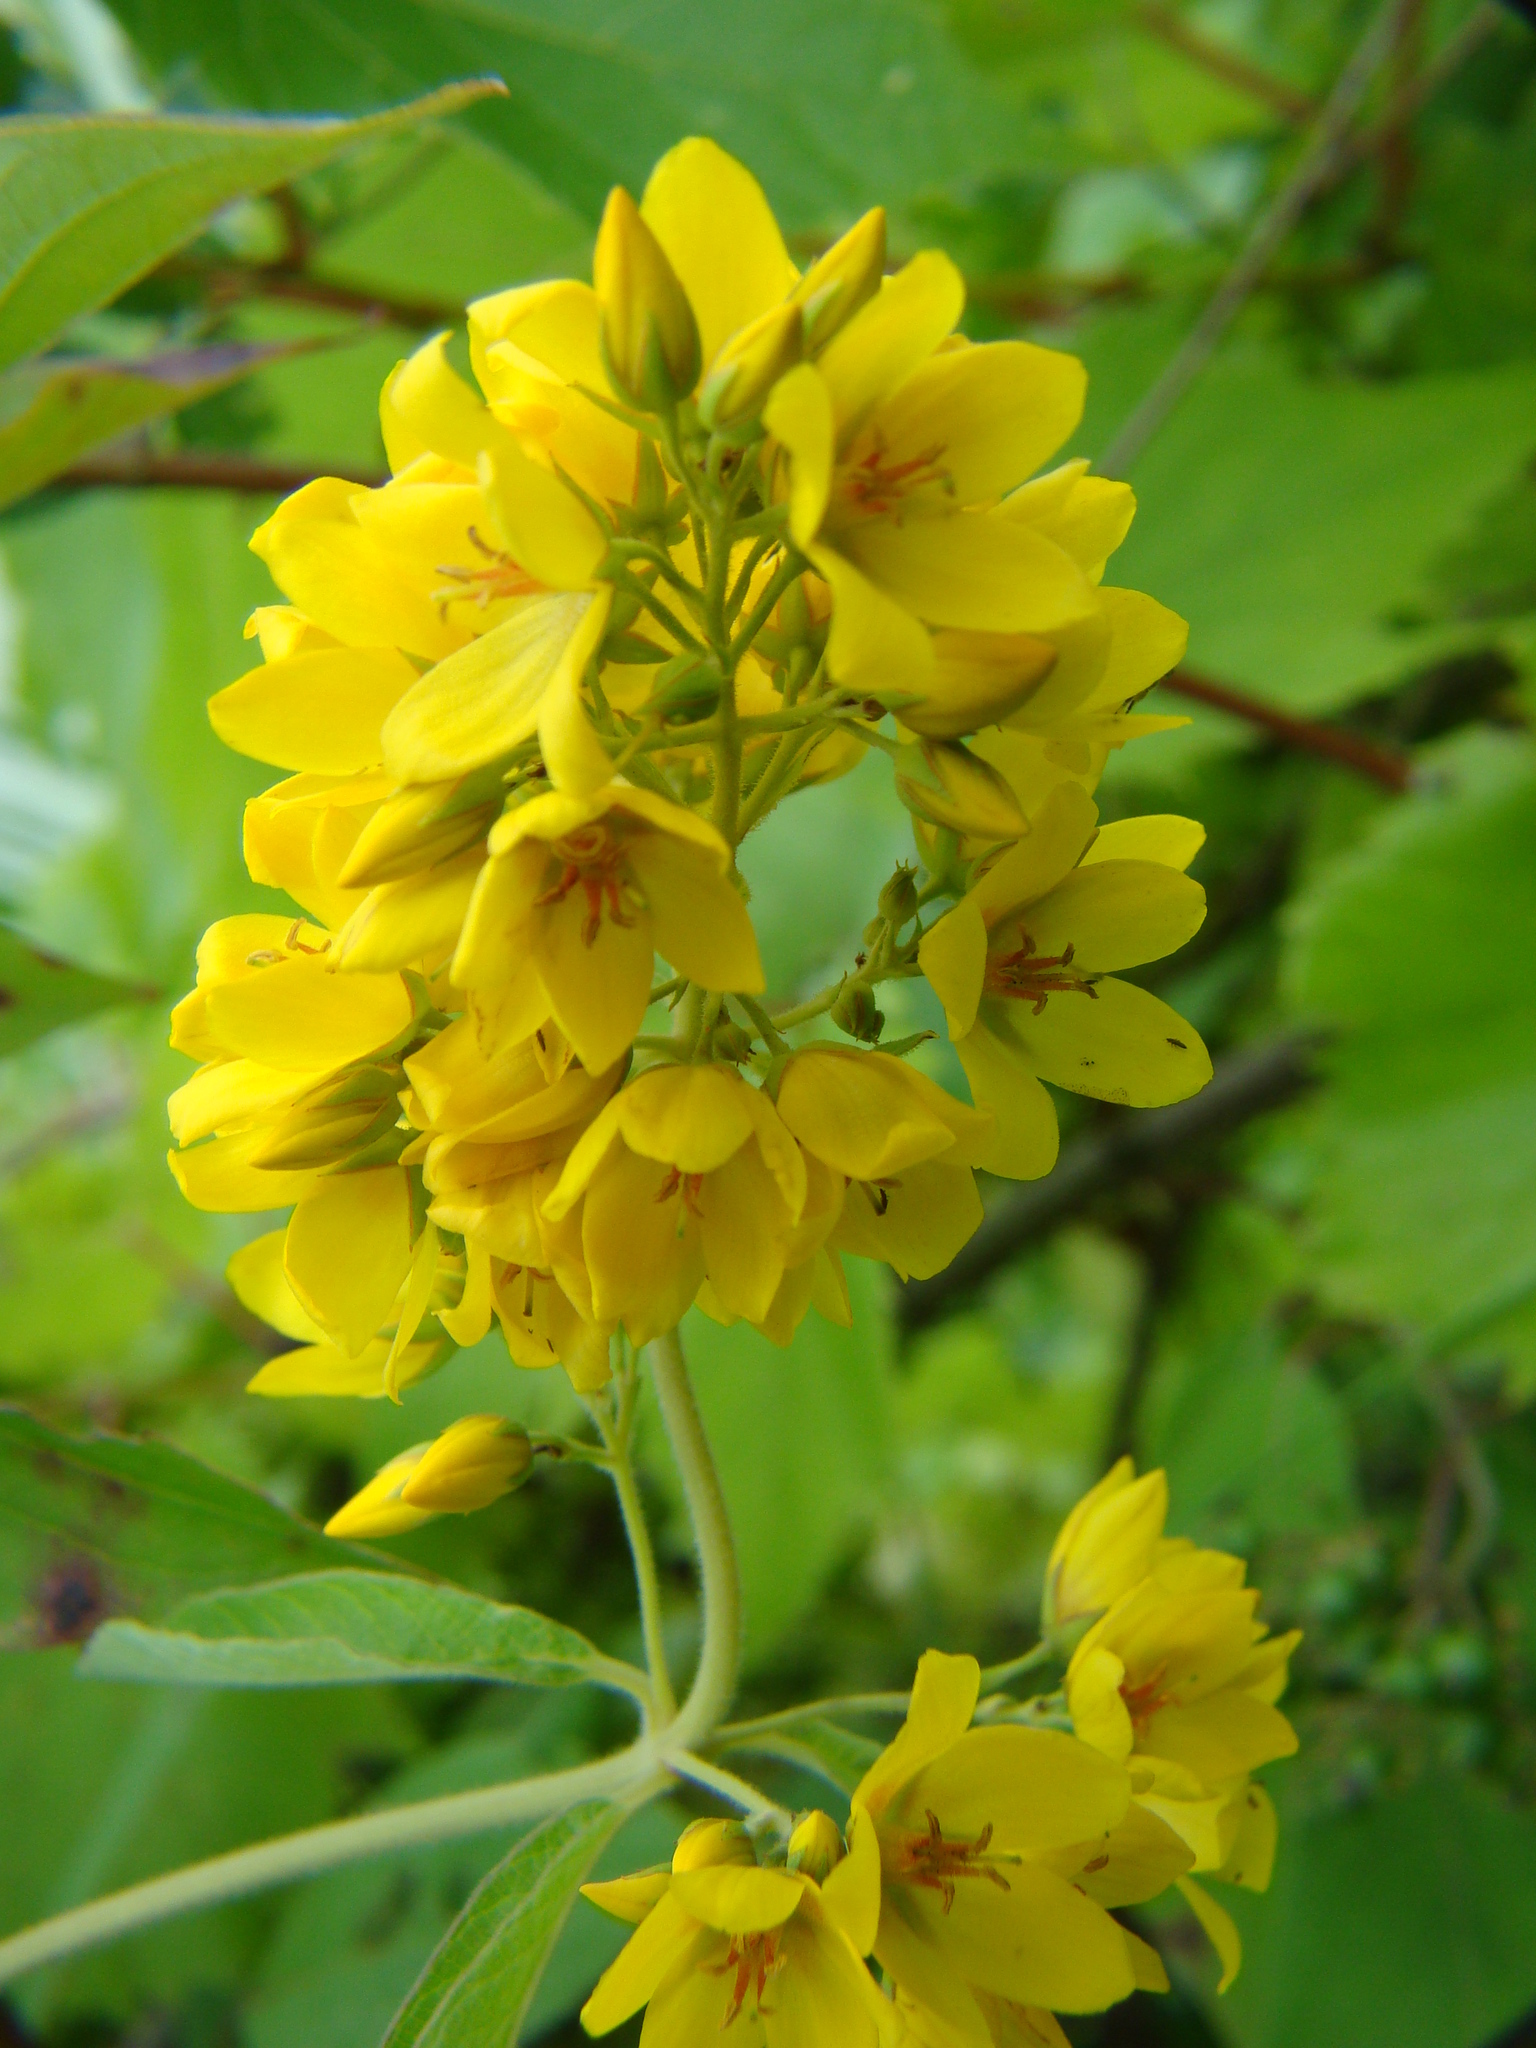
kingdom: Plantae
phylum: Tracheophyta
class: Magnoliopsida
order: Ericales
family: Primulaceae
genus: Lysimachia
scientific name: Lysimachia vulgaris
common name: Yellow loosestrife
